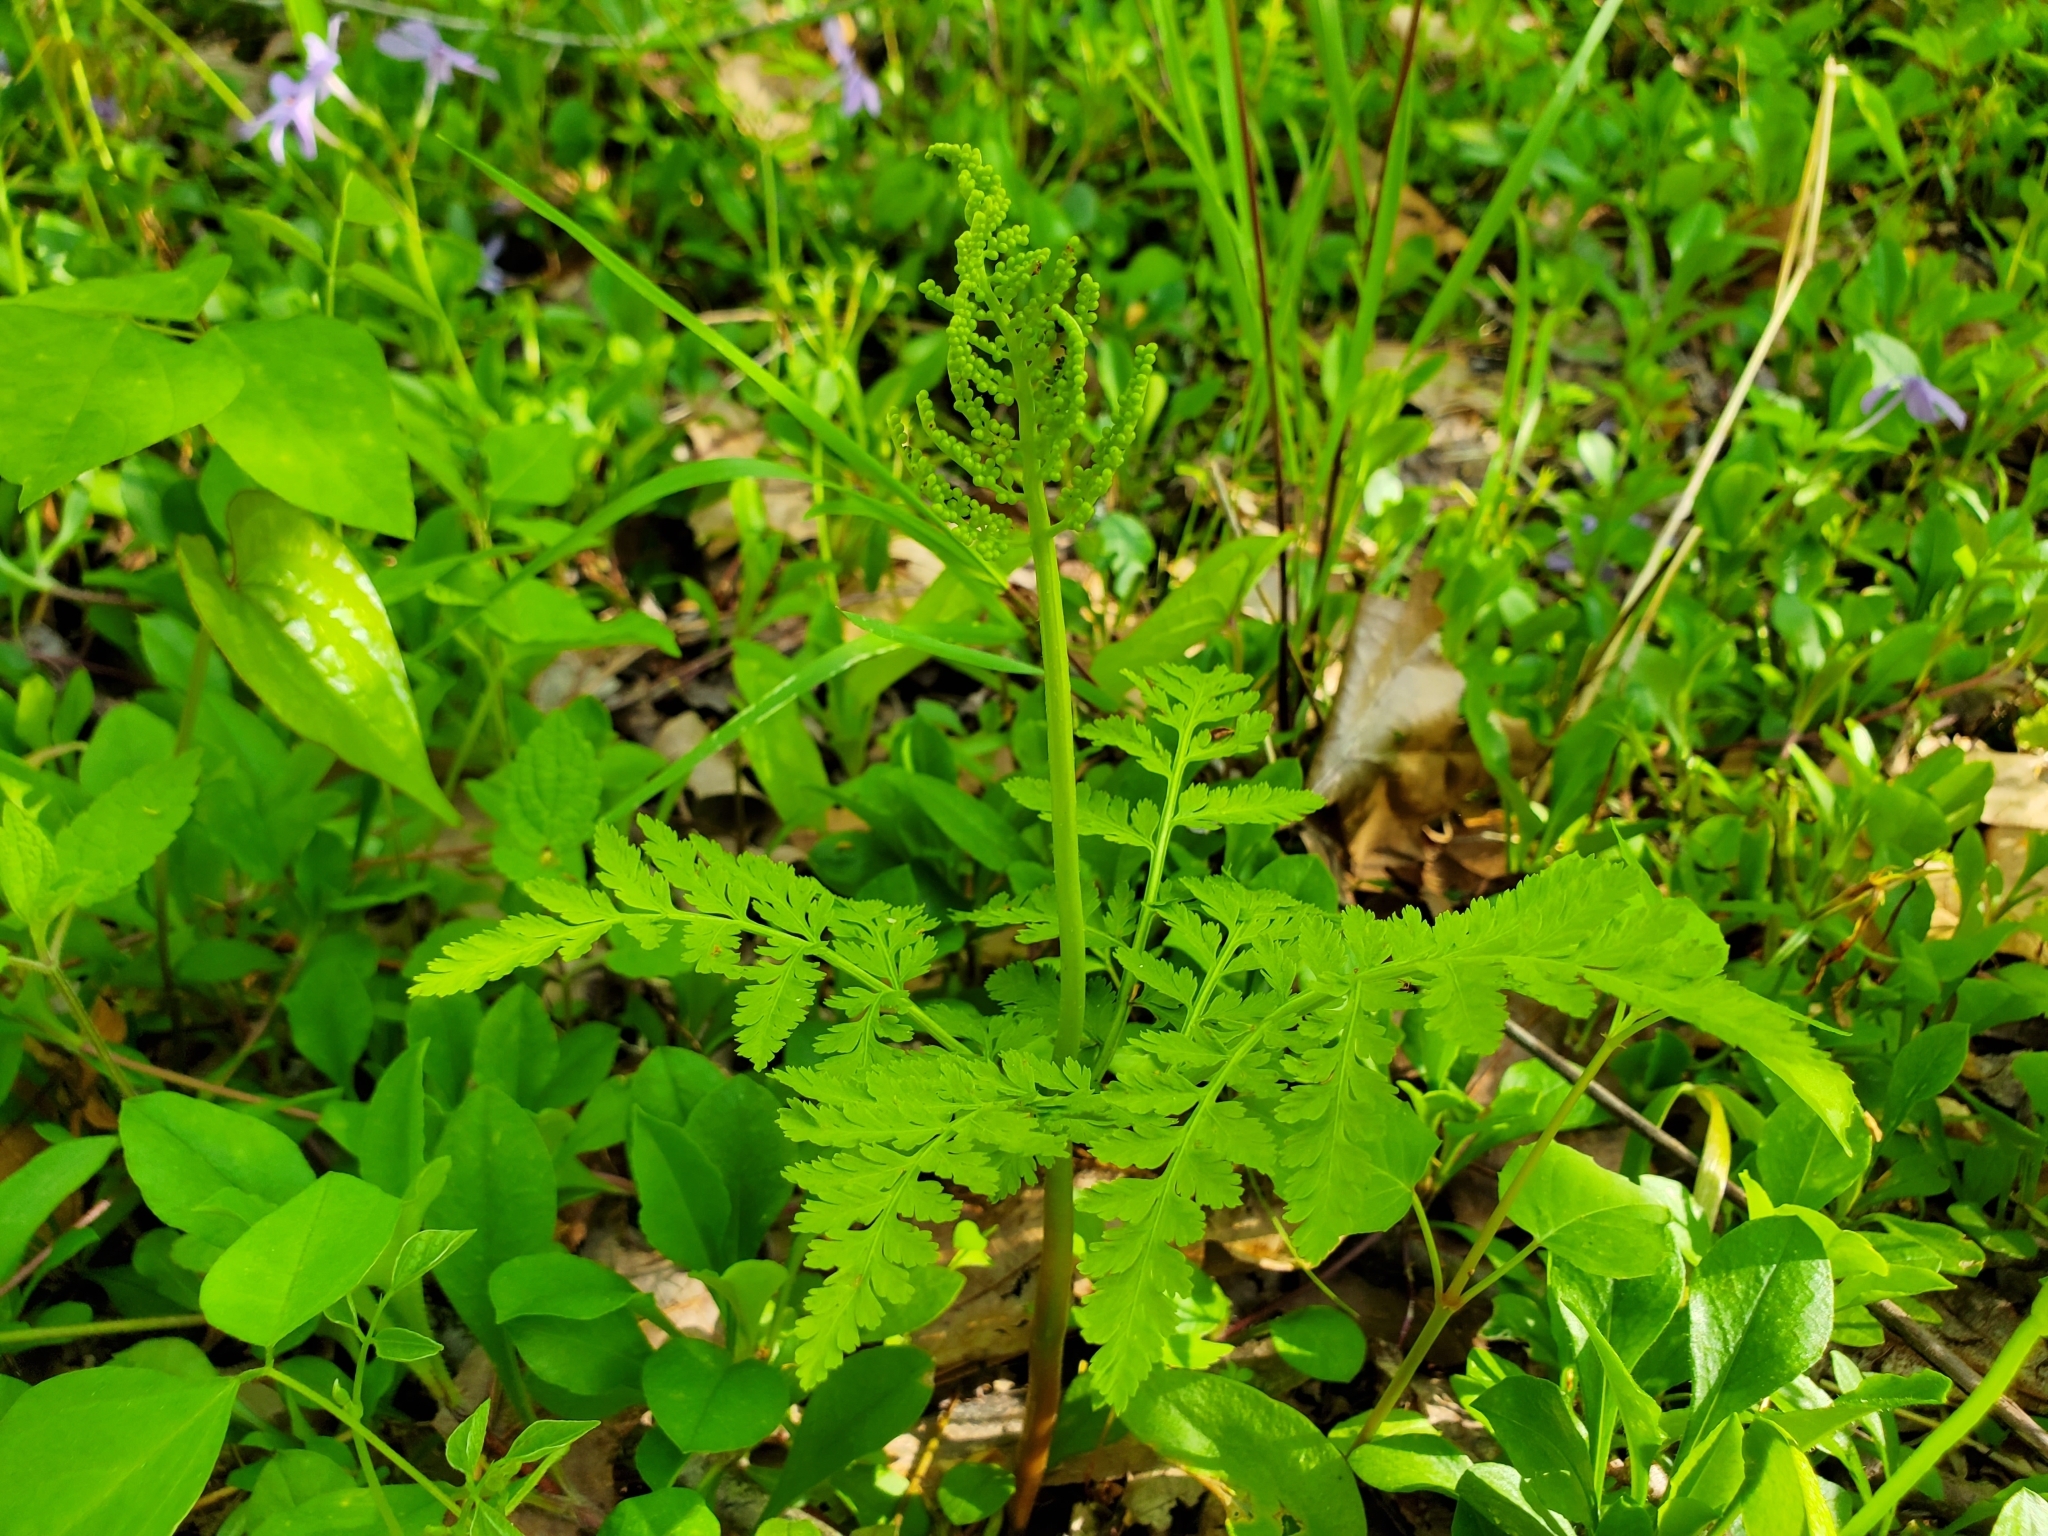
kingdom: Plantae
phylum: Tracheophyta
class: Polypodiopsida
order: Ophioglossales
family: Ophioglossaceae
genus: Botrypus
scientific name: Botrypus virginianus
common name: Common grapefern
